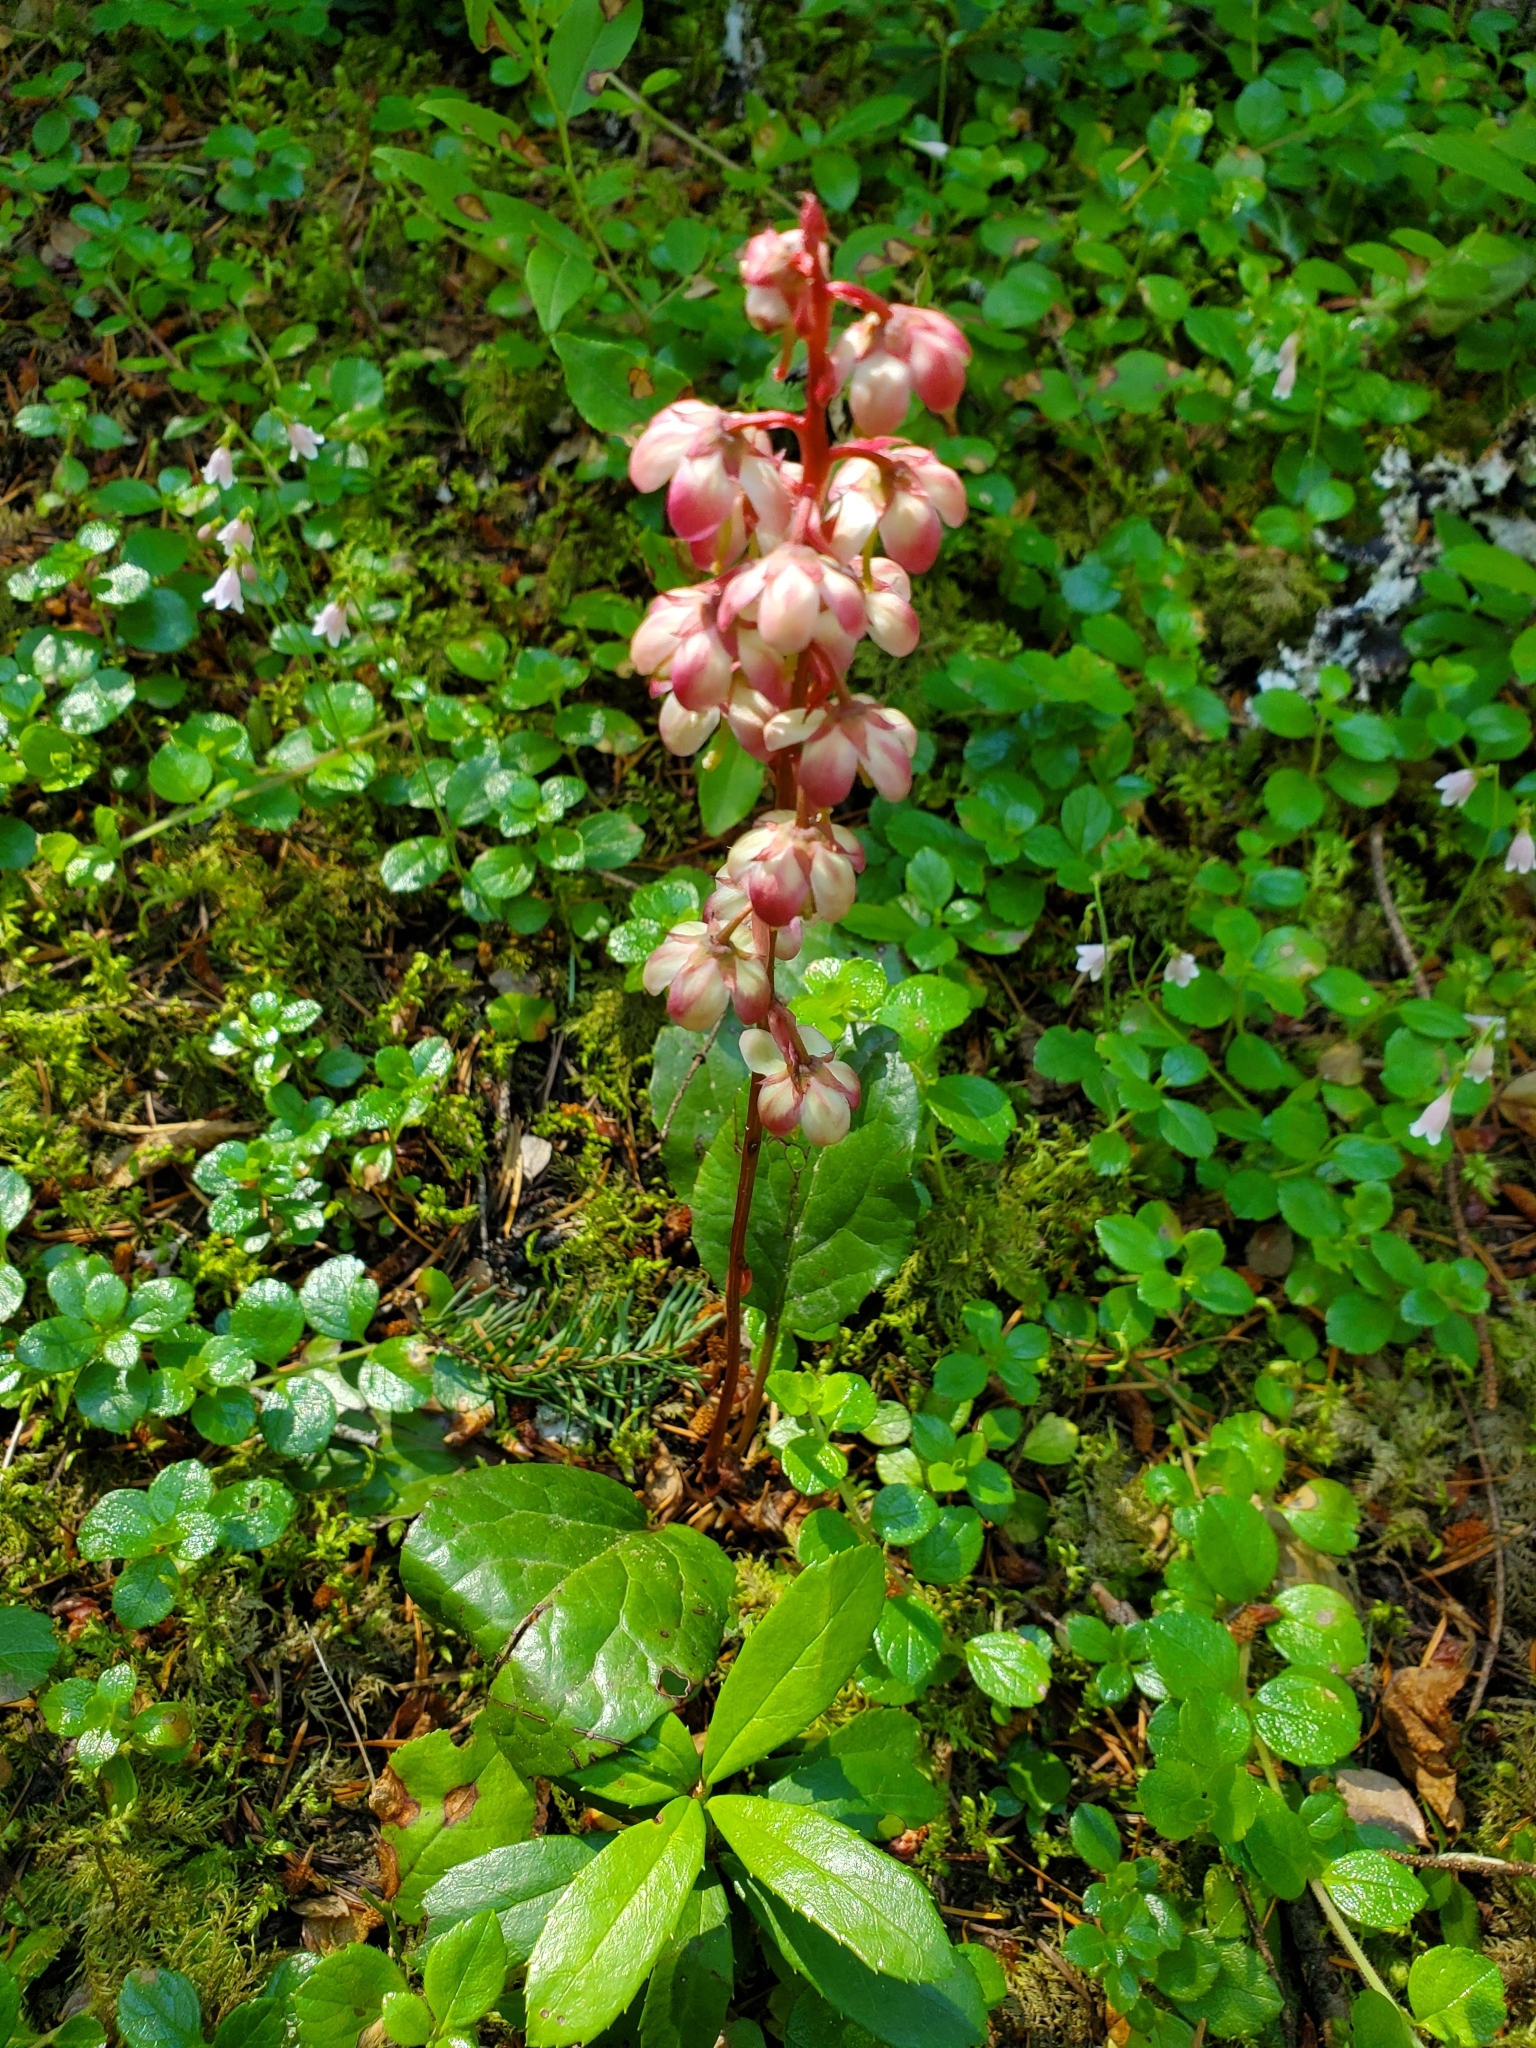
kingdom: Plantae
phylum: Tracheophyta
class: Magnoliopsida
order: Ericales
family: Ericaceae
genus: Pyrola
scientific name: Pyrola asarifolia
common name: Bog wintergreen
